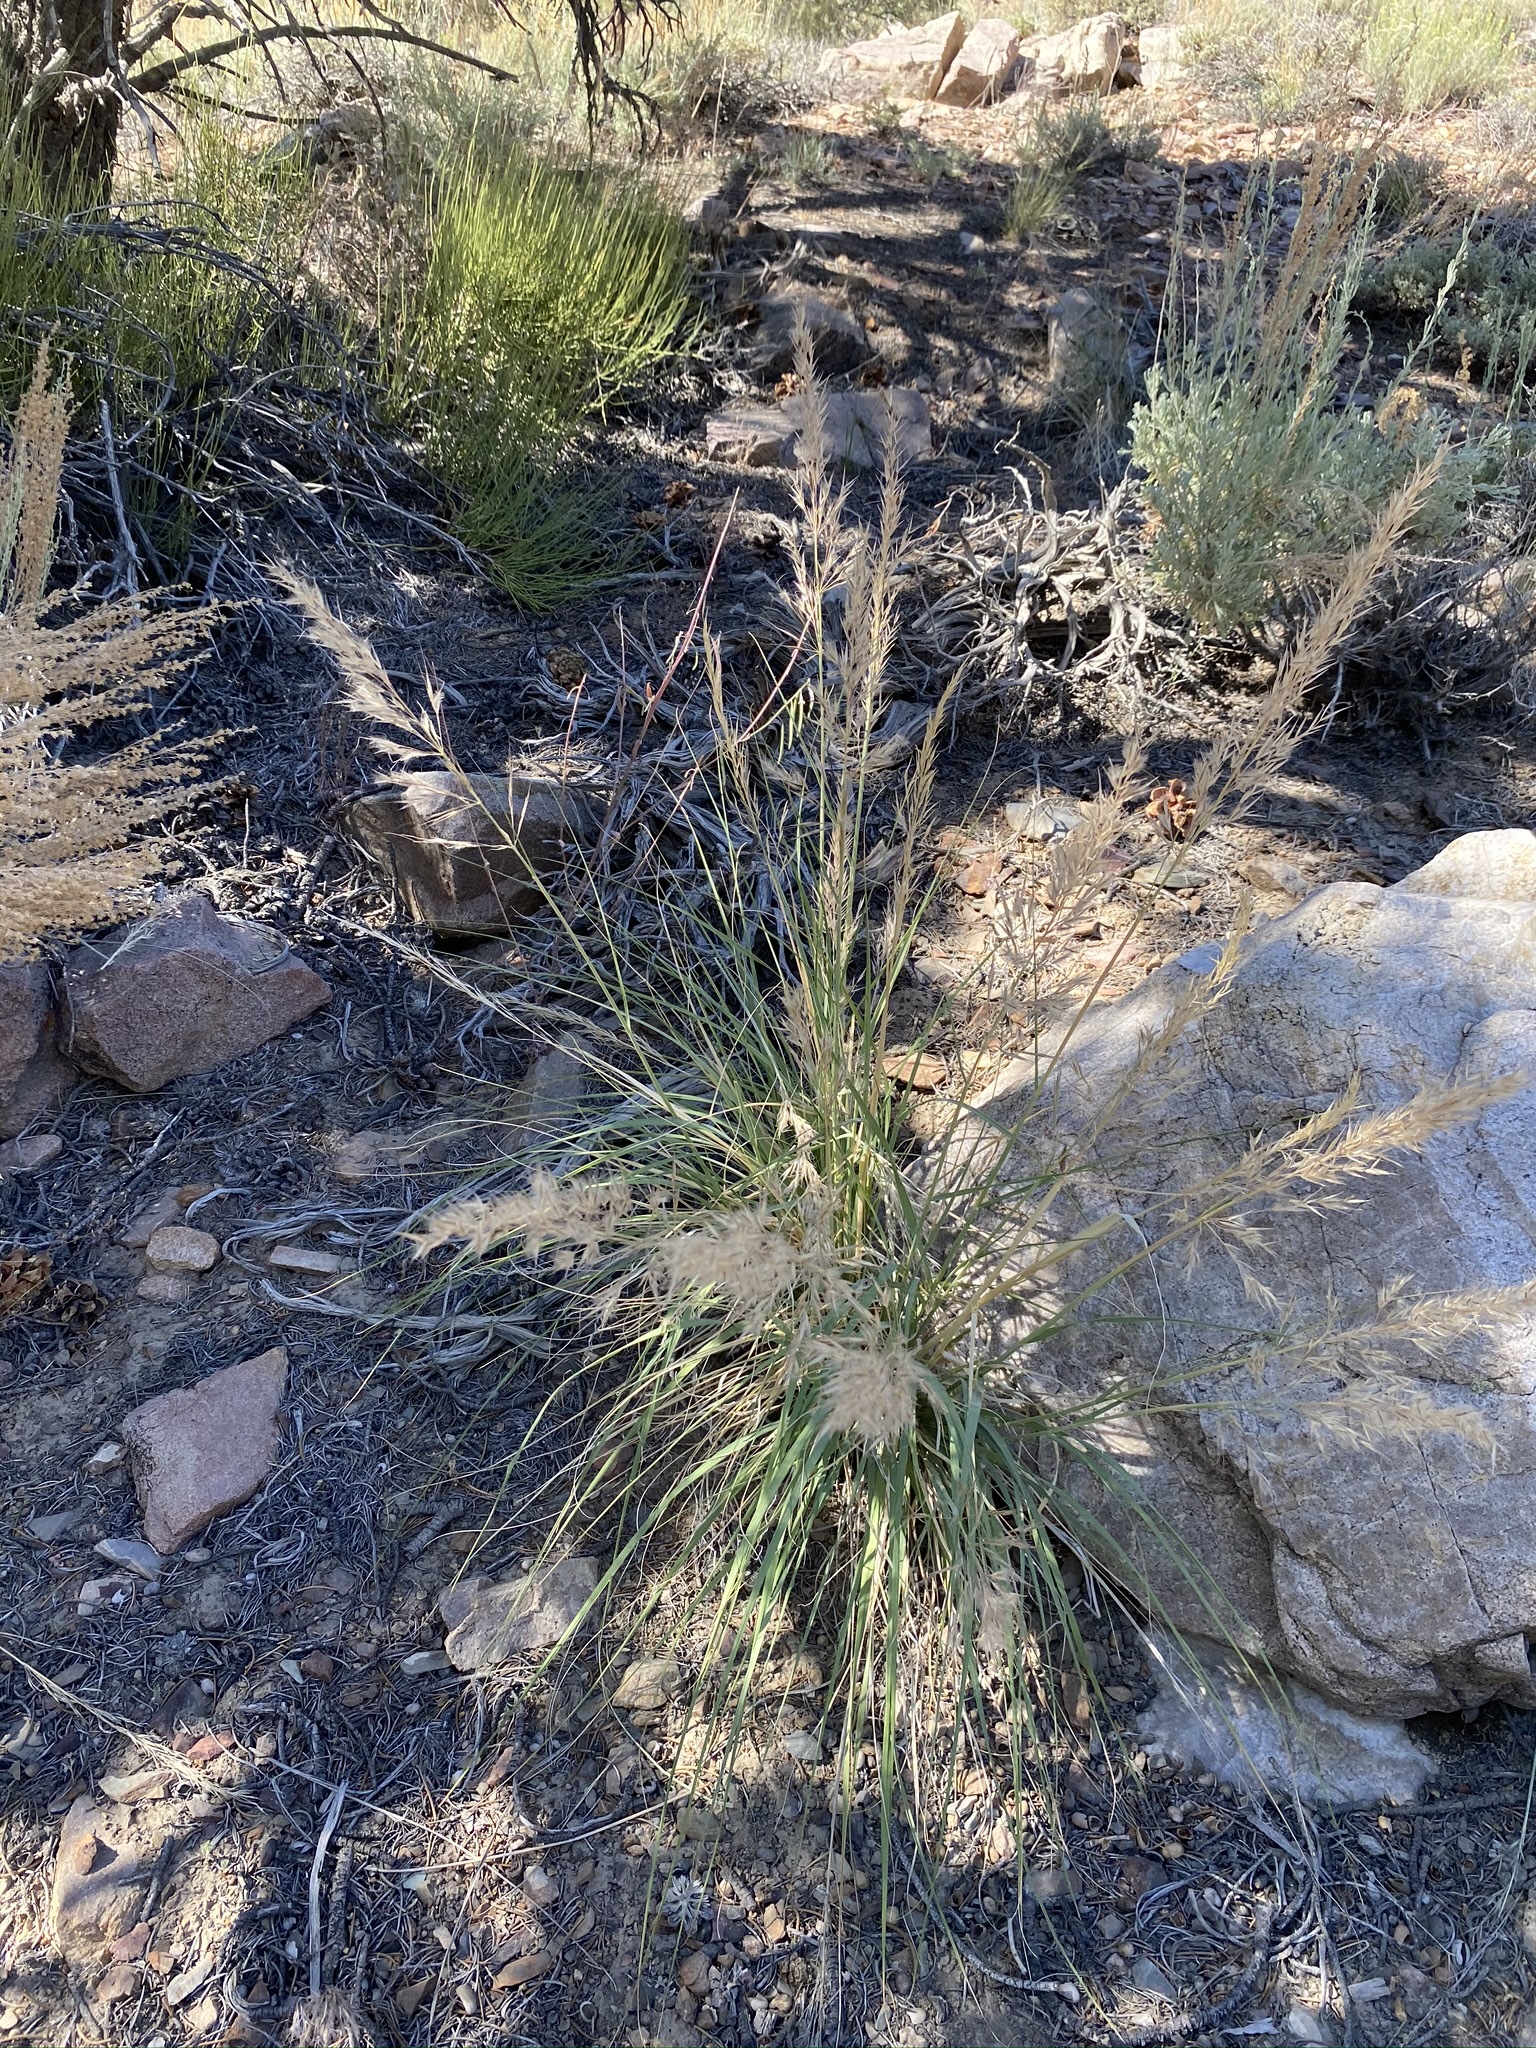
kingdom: Plantae
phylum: Tracheophyta
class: Liliopsida
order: Poales
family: Poaceae
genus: Eriocoma
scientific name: Eriocoma parishii
